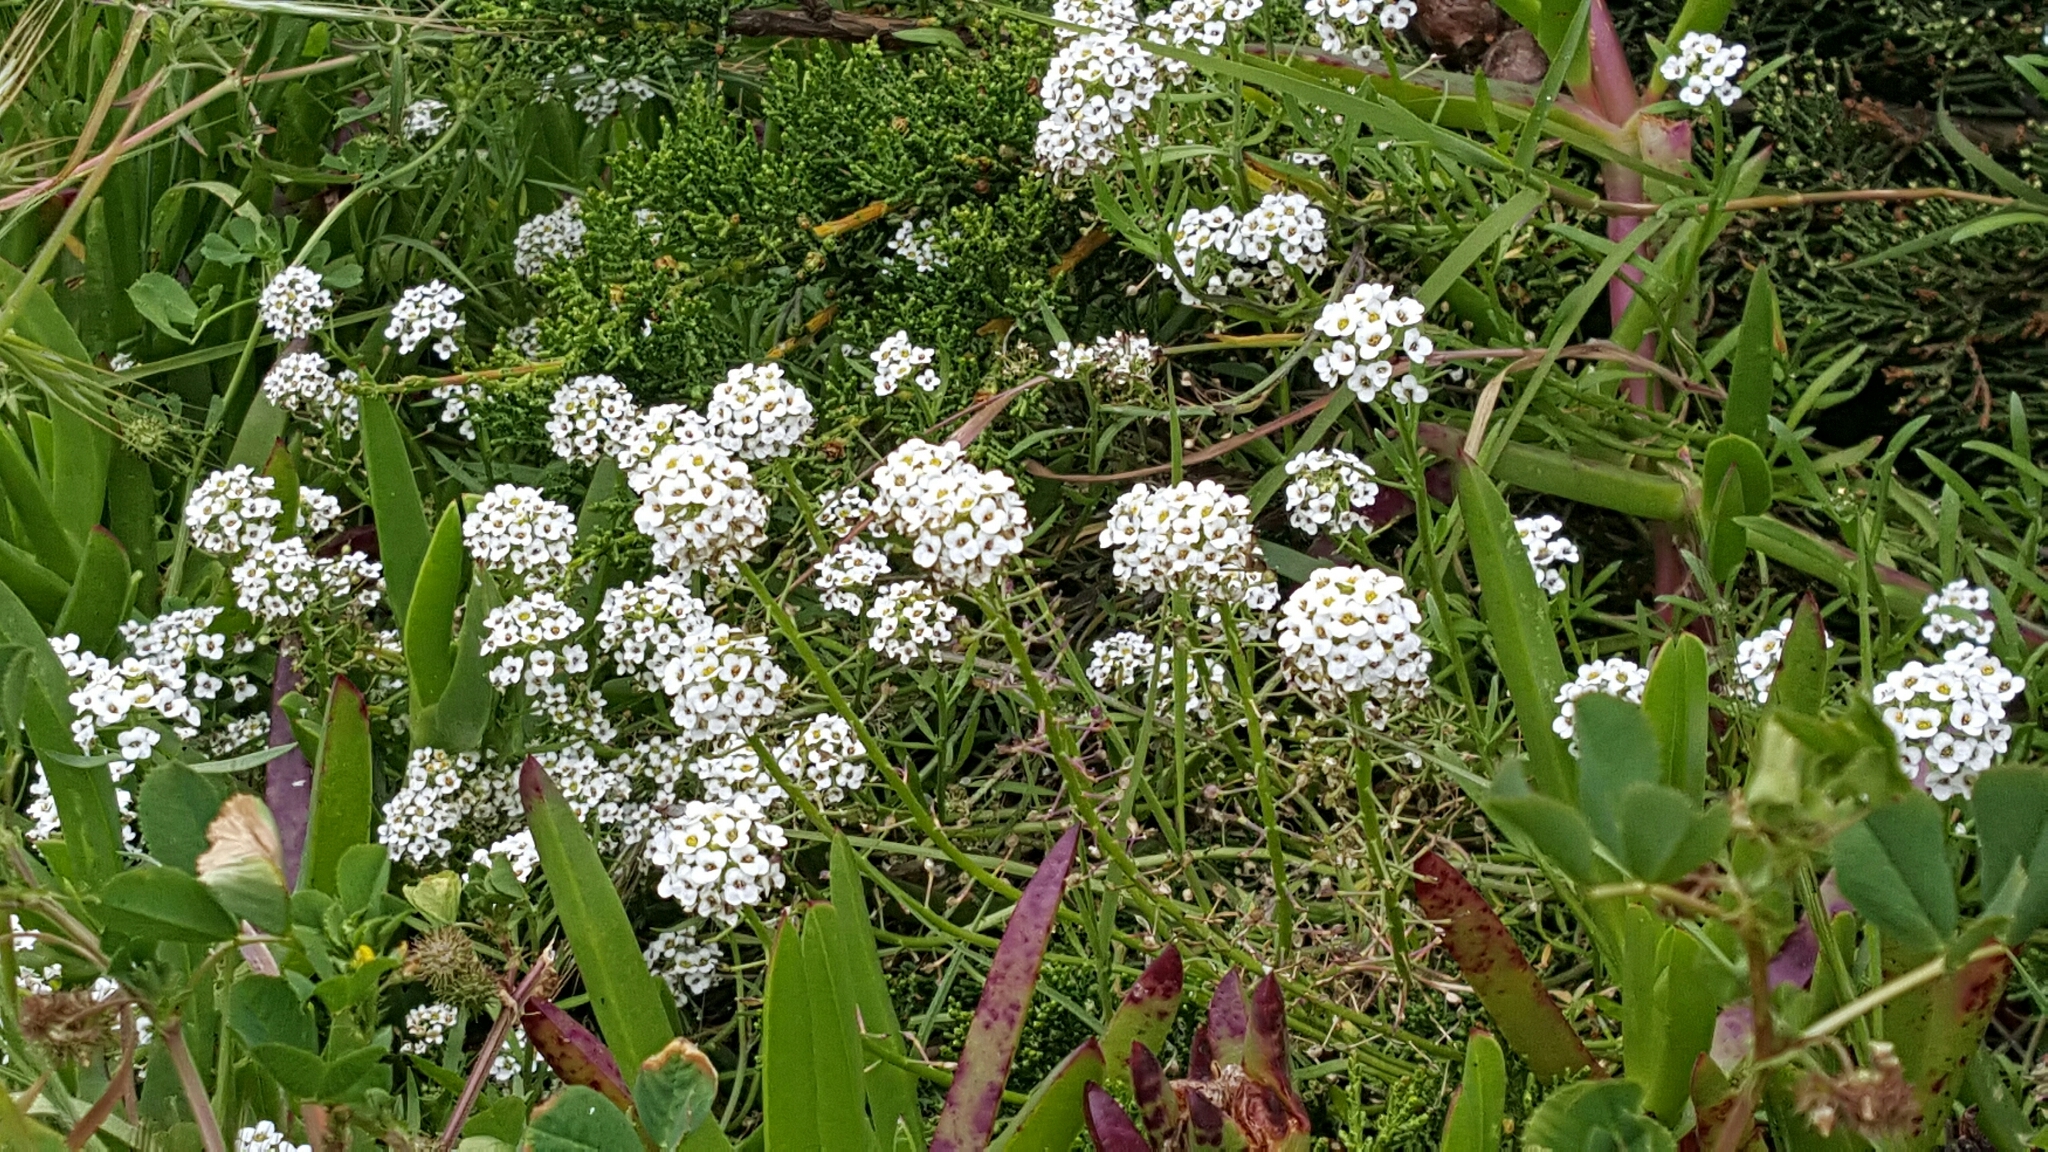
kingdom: Plantae
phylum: Tracheophyta
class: Magnoliopsida
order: Brassicales
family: Brassicaceae
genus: Lobularia
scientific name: Lobularia maritima
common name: Sweet alison
